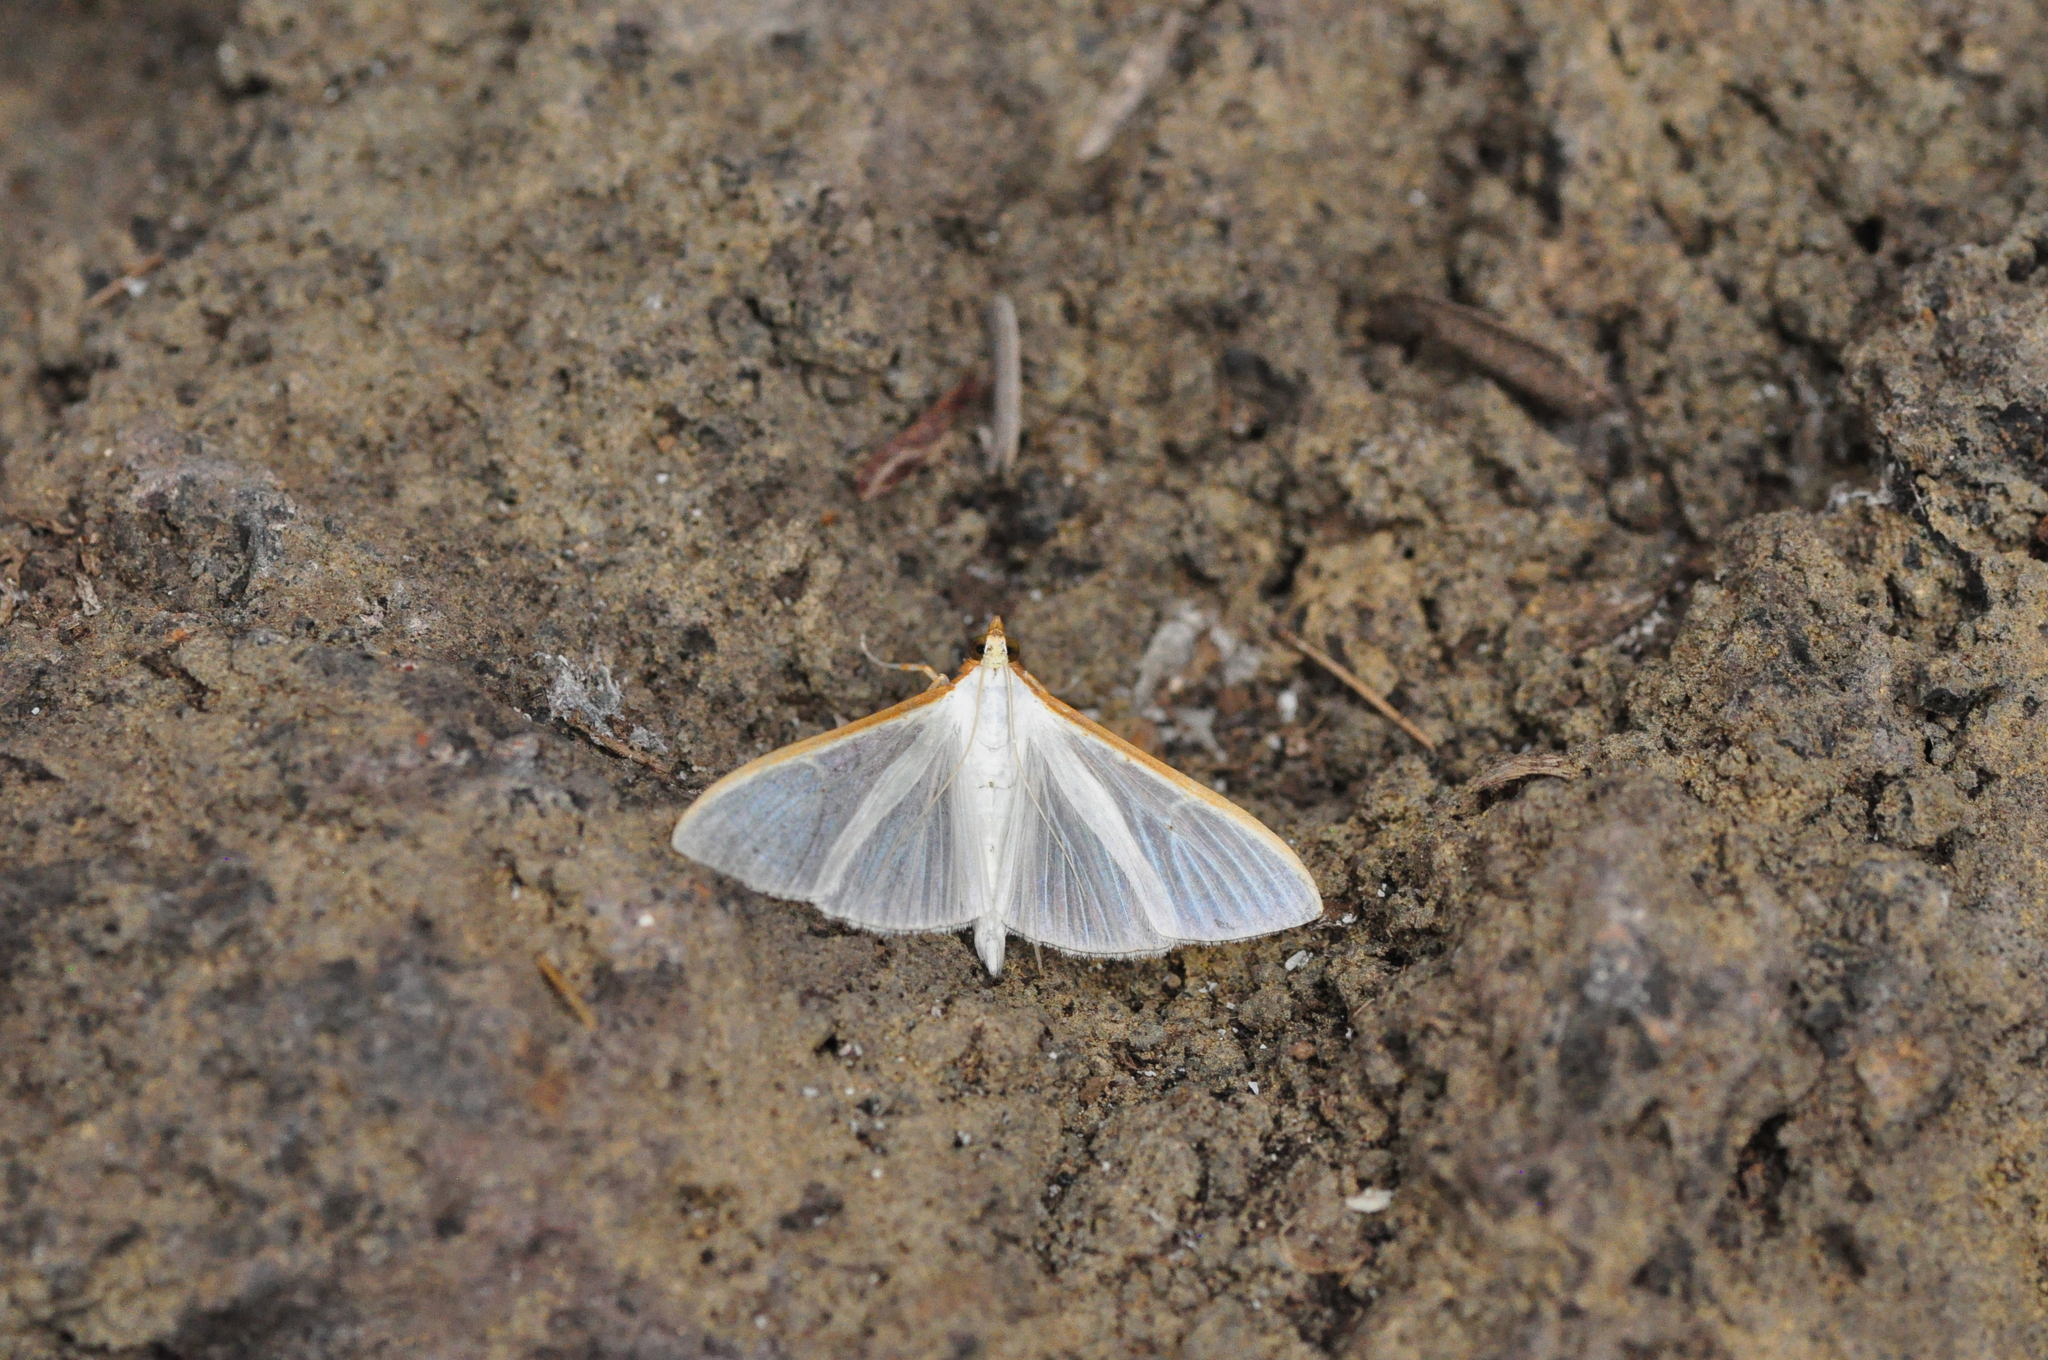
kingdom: Animalia
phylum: Arthropoda
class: Insecta
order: Lepidoptera
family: Crambidae
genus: Palpita
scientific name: Palpita vitrealis
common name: Olive-tree pearl
